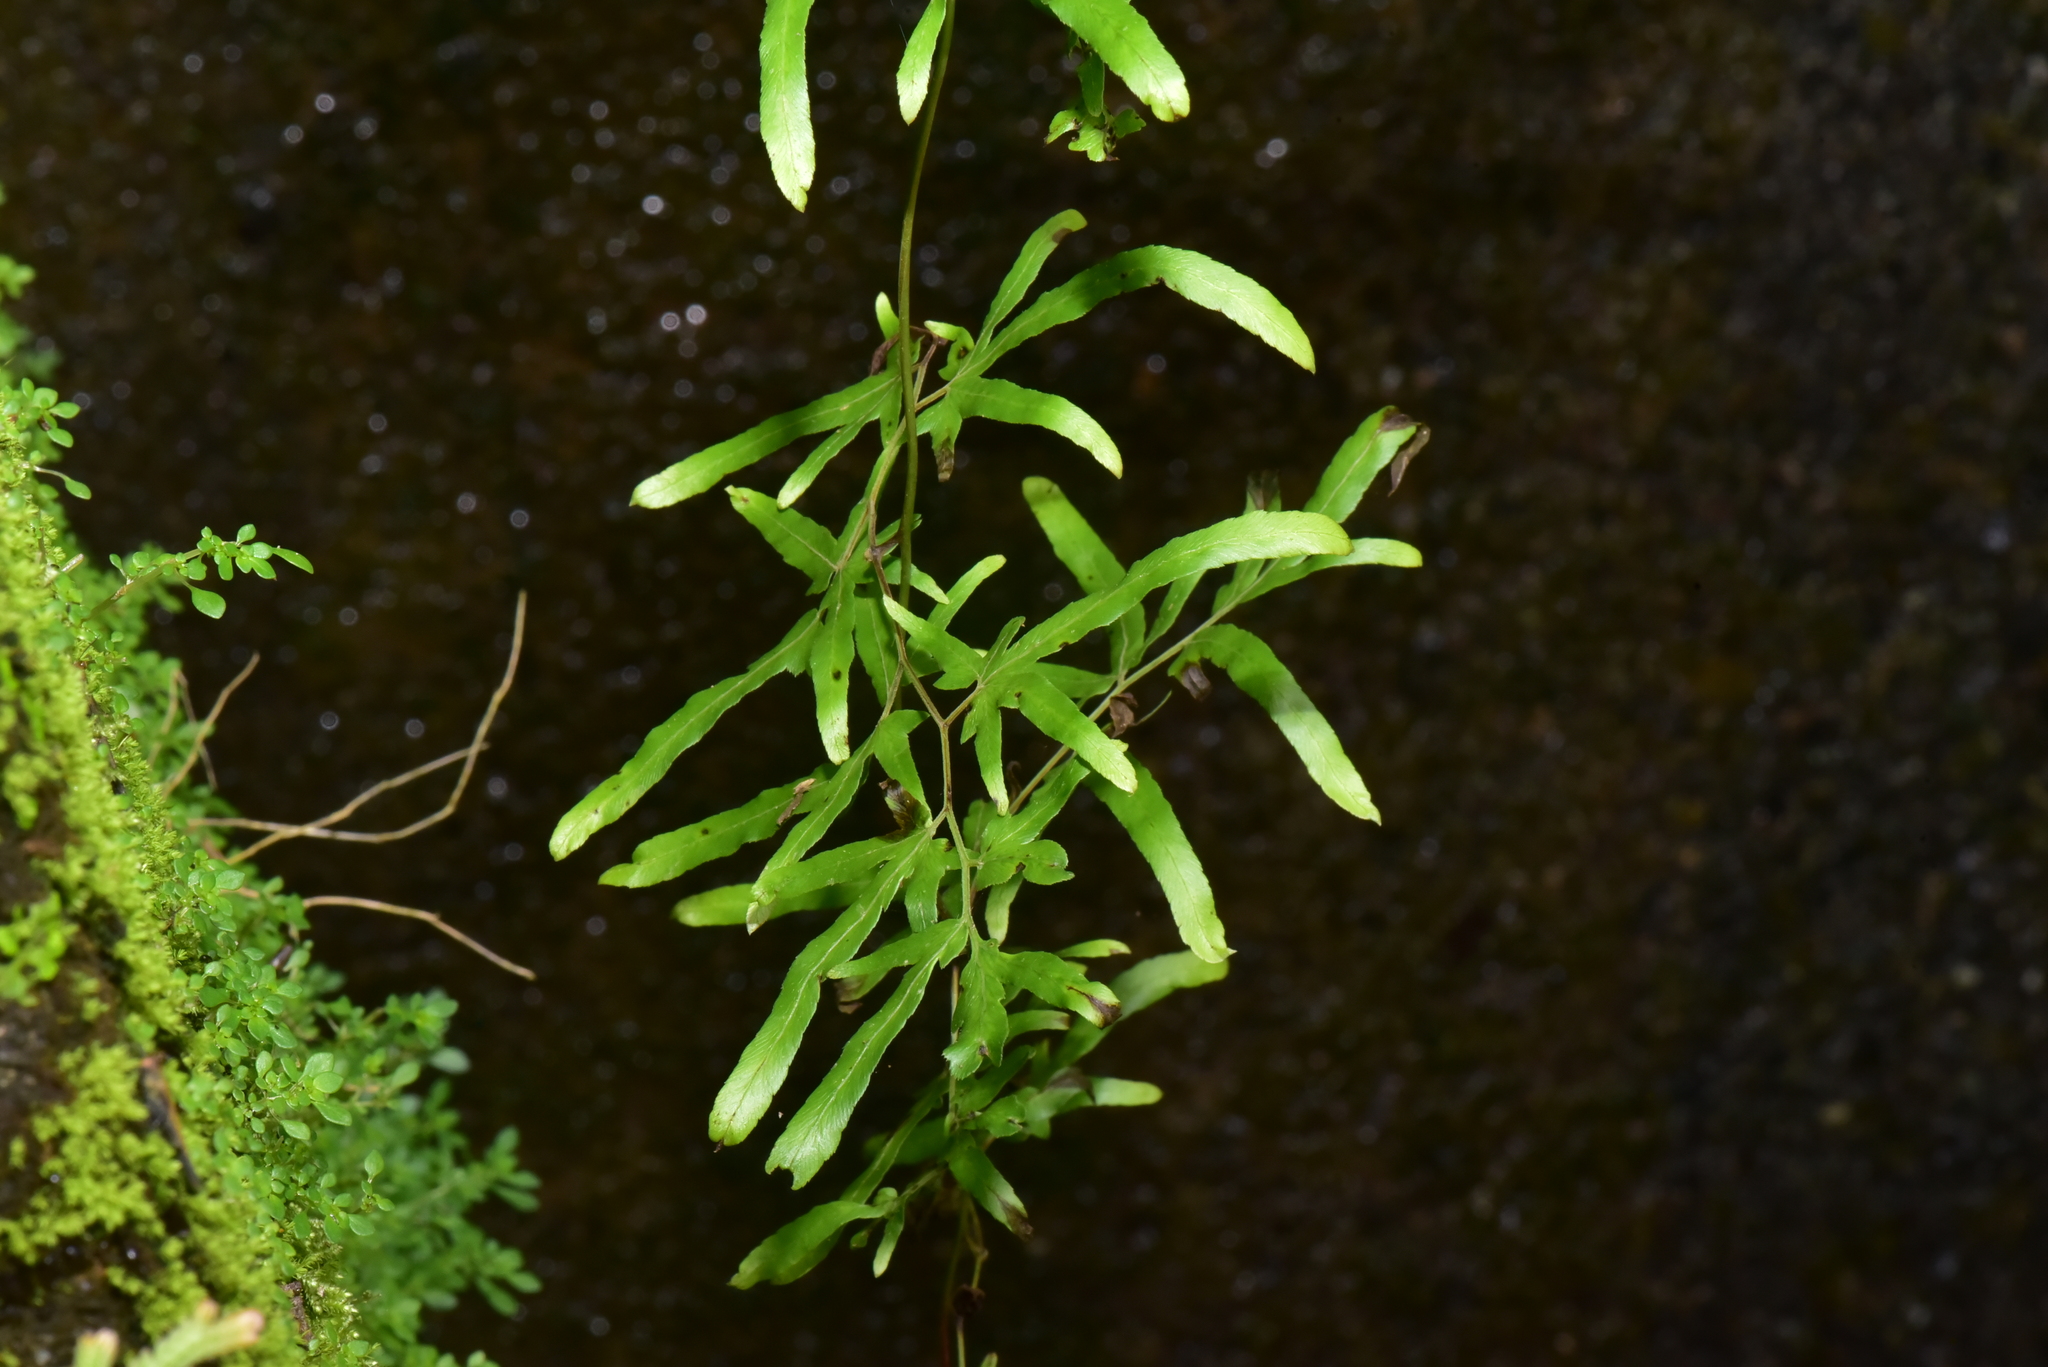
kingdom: Plantae
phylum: Tracheophyta
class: Polypodiopsida
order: Schizaeales
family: Lygodiaceae
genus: Lygodium
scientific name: Lygodium japonicum
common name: Japanese climbing fern
